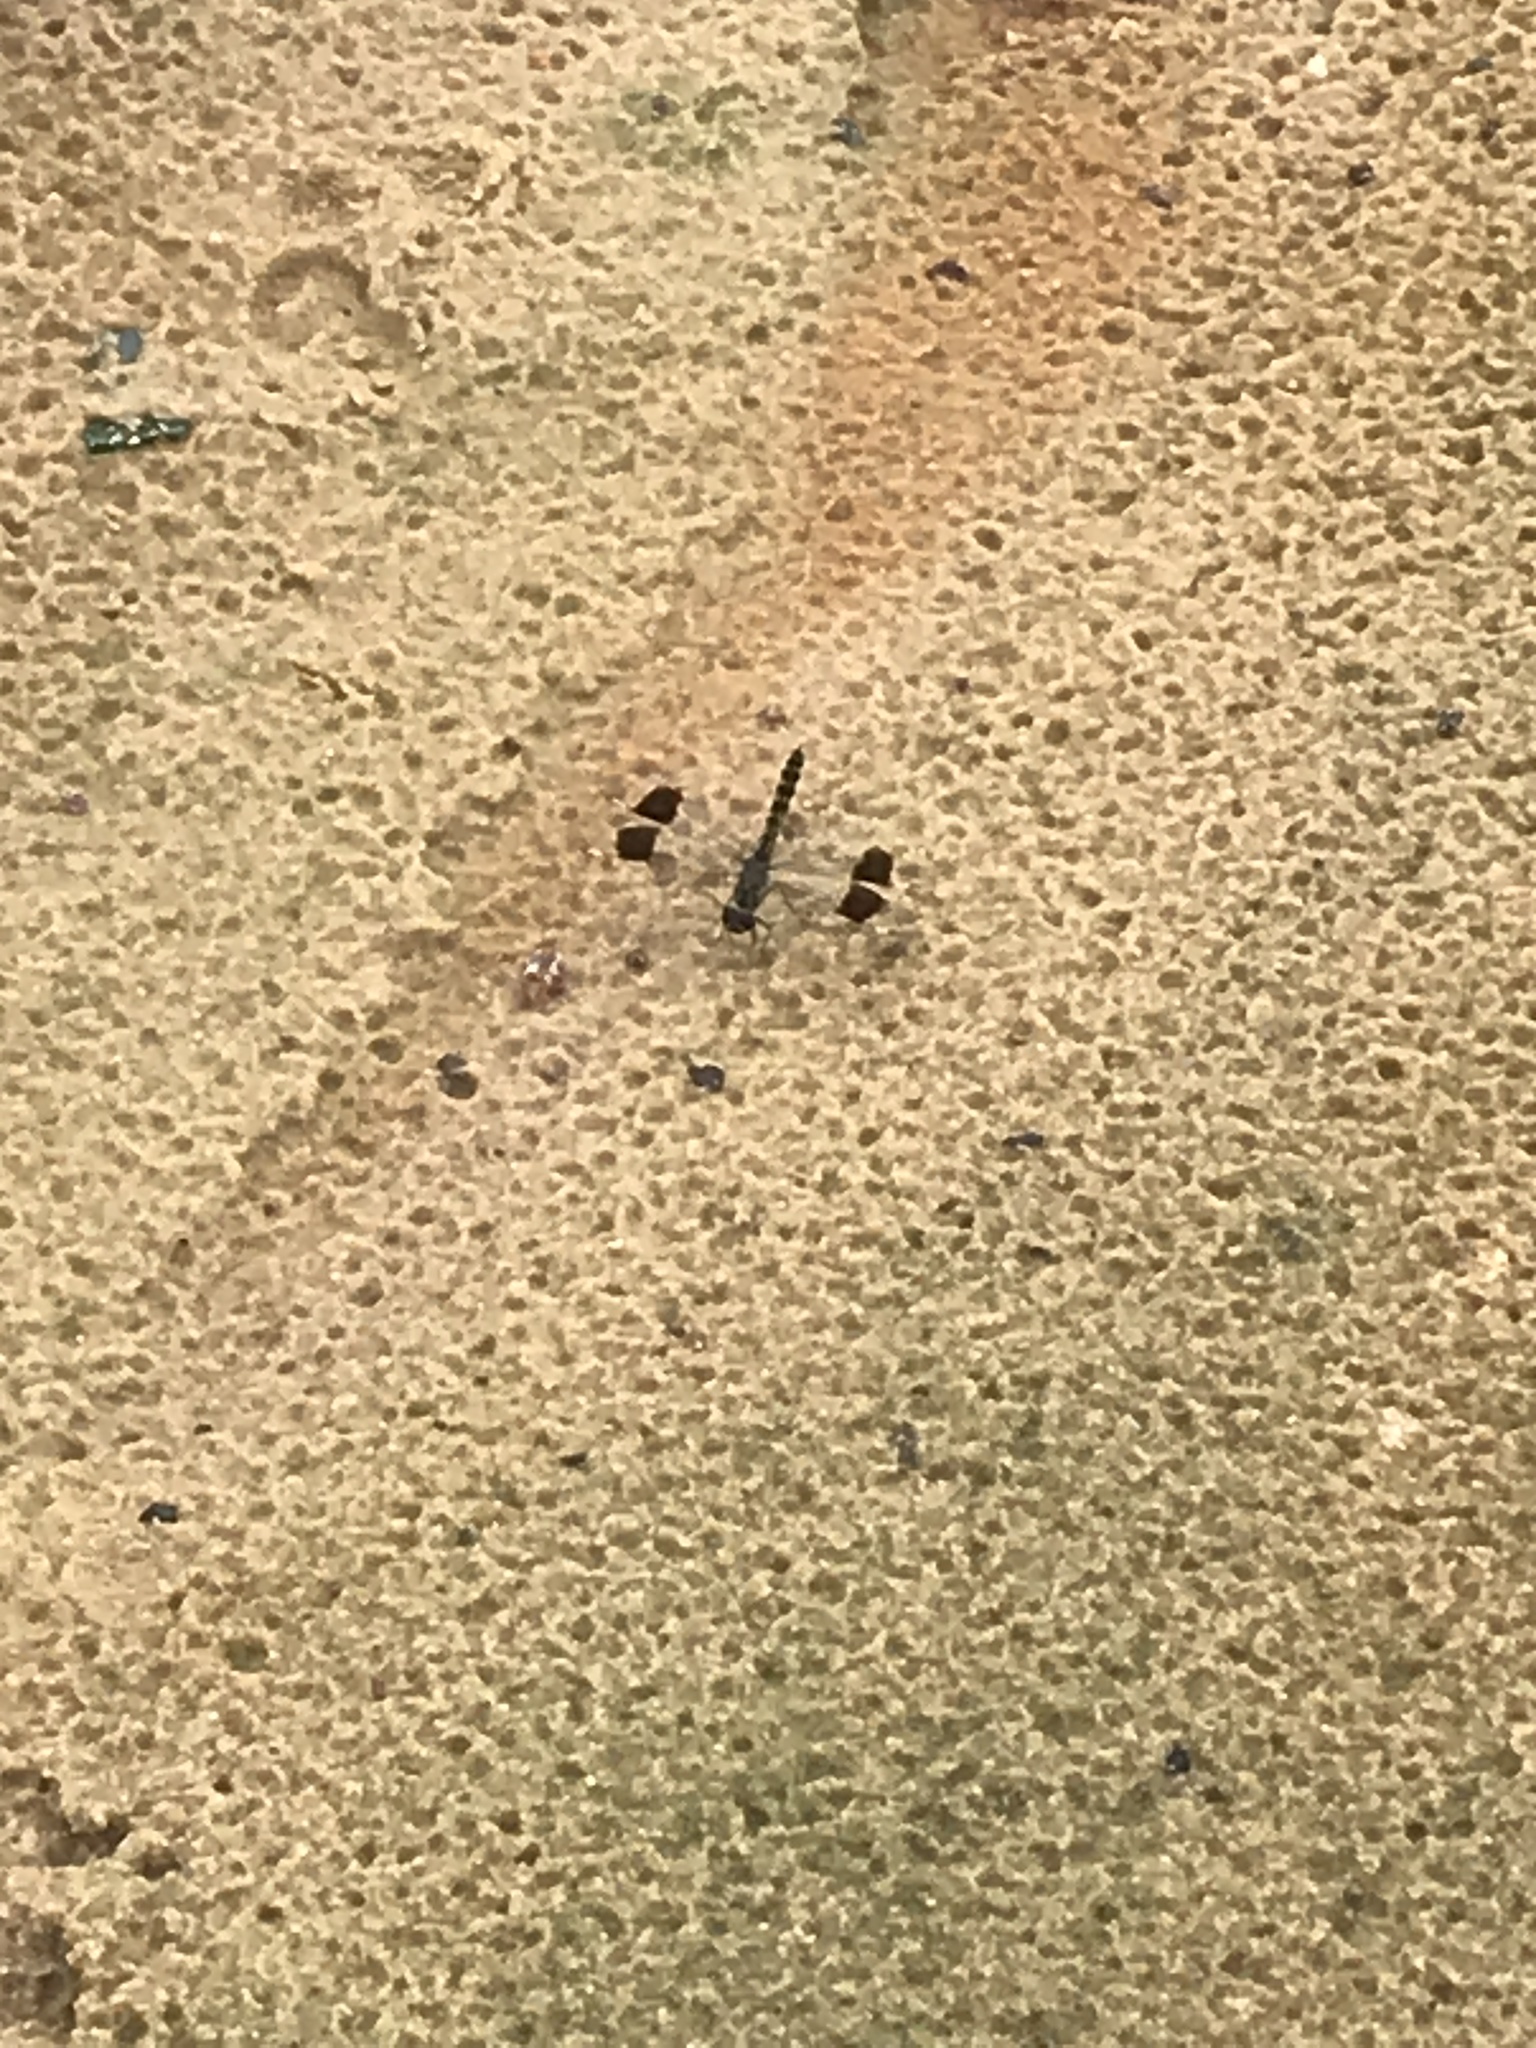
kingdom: Animalia
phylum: Arthropoda
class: Insecta
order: Odonata
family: Libellulidae
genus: Brachythemis
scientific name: Brachythemis leucosticta
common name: Banded groundling
